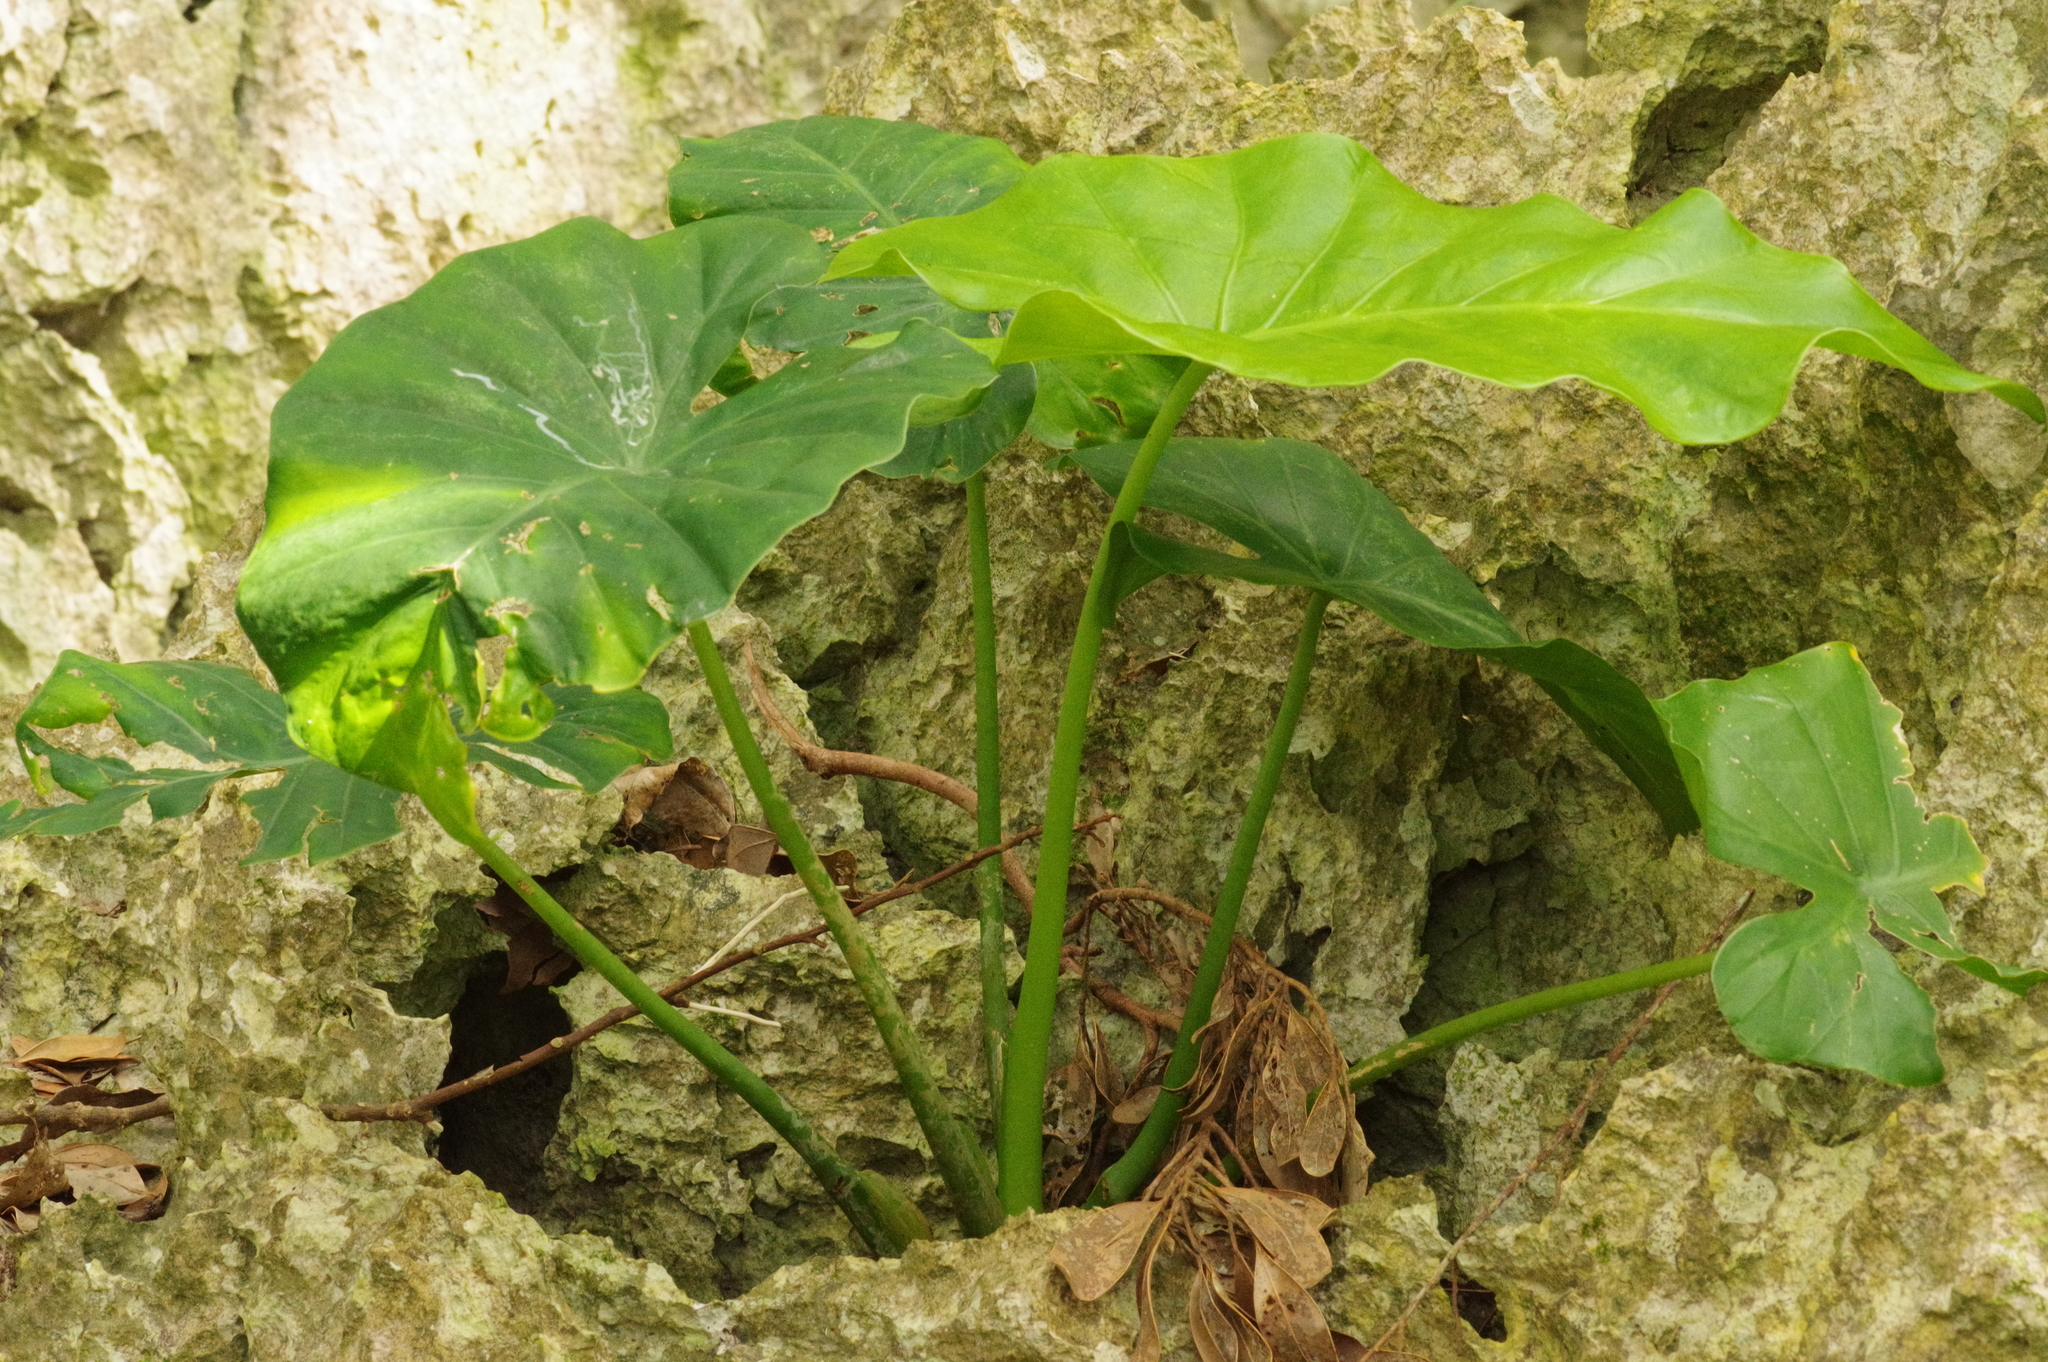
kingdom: Plantae
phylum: Tracheophyta
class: Liliopsida
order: Alismatales
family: Araceae
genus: Alocasia
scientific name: Alocasia odora
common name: Asian taro
